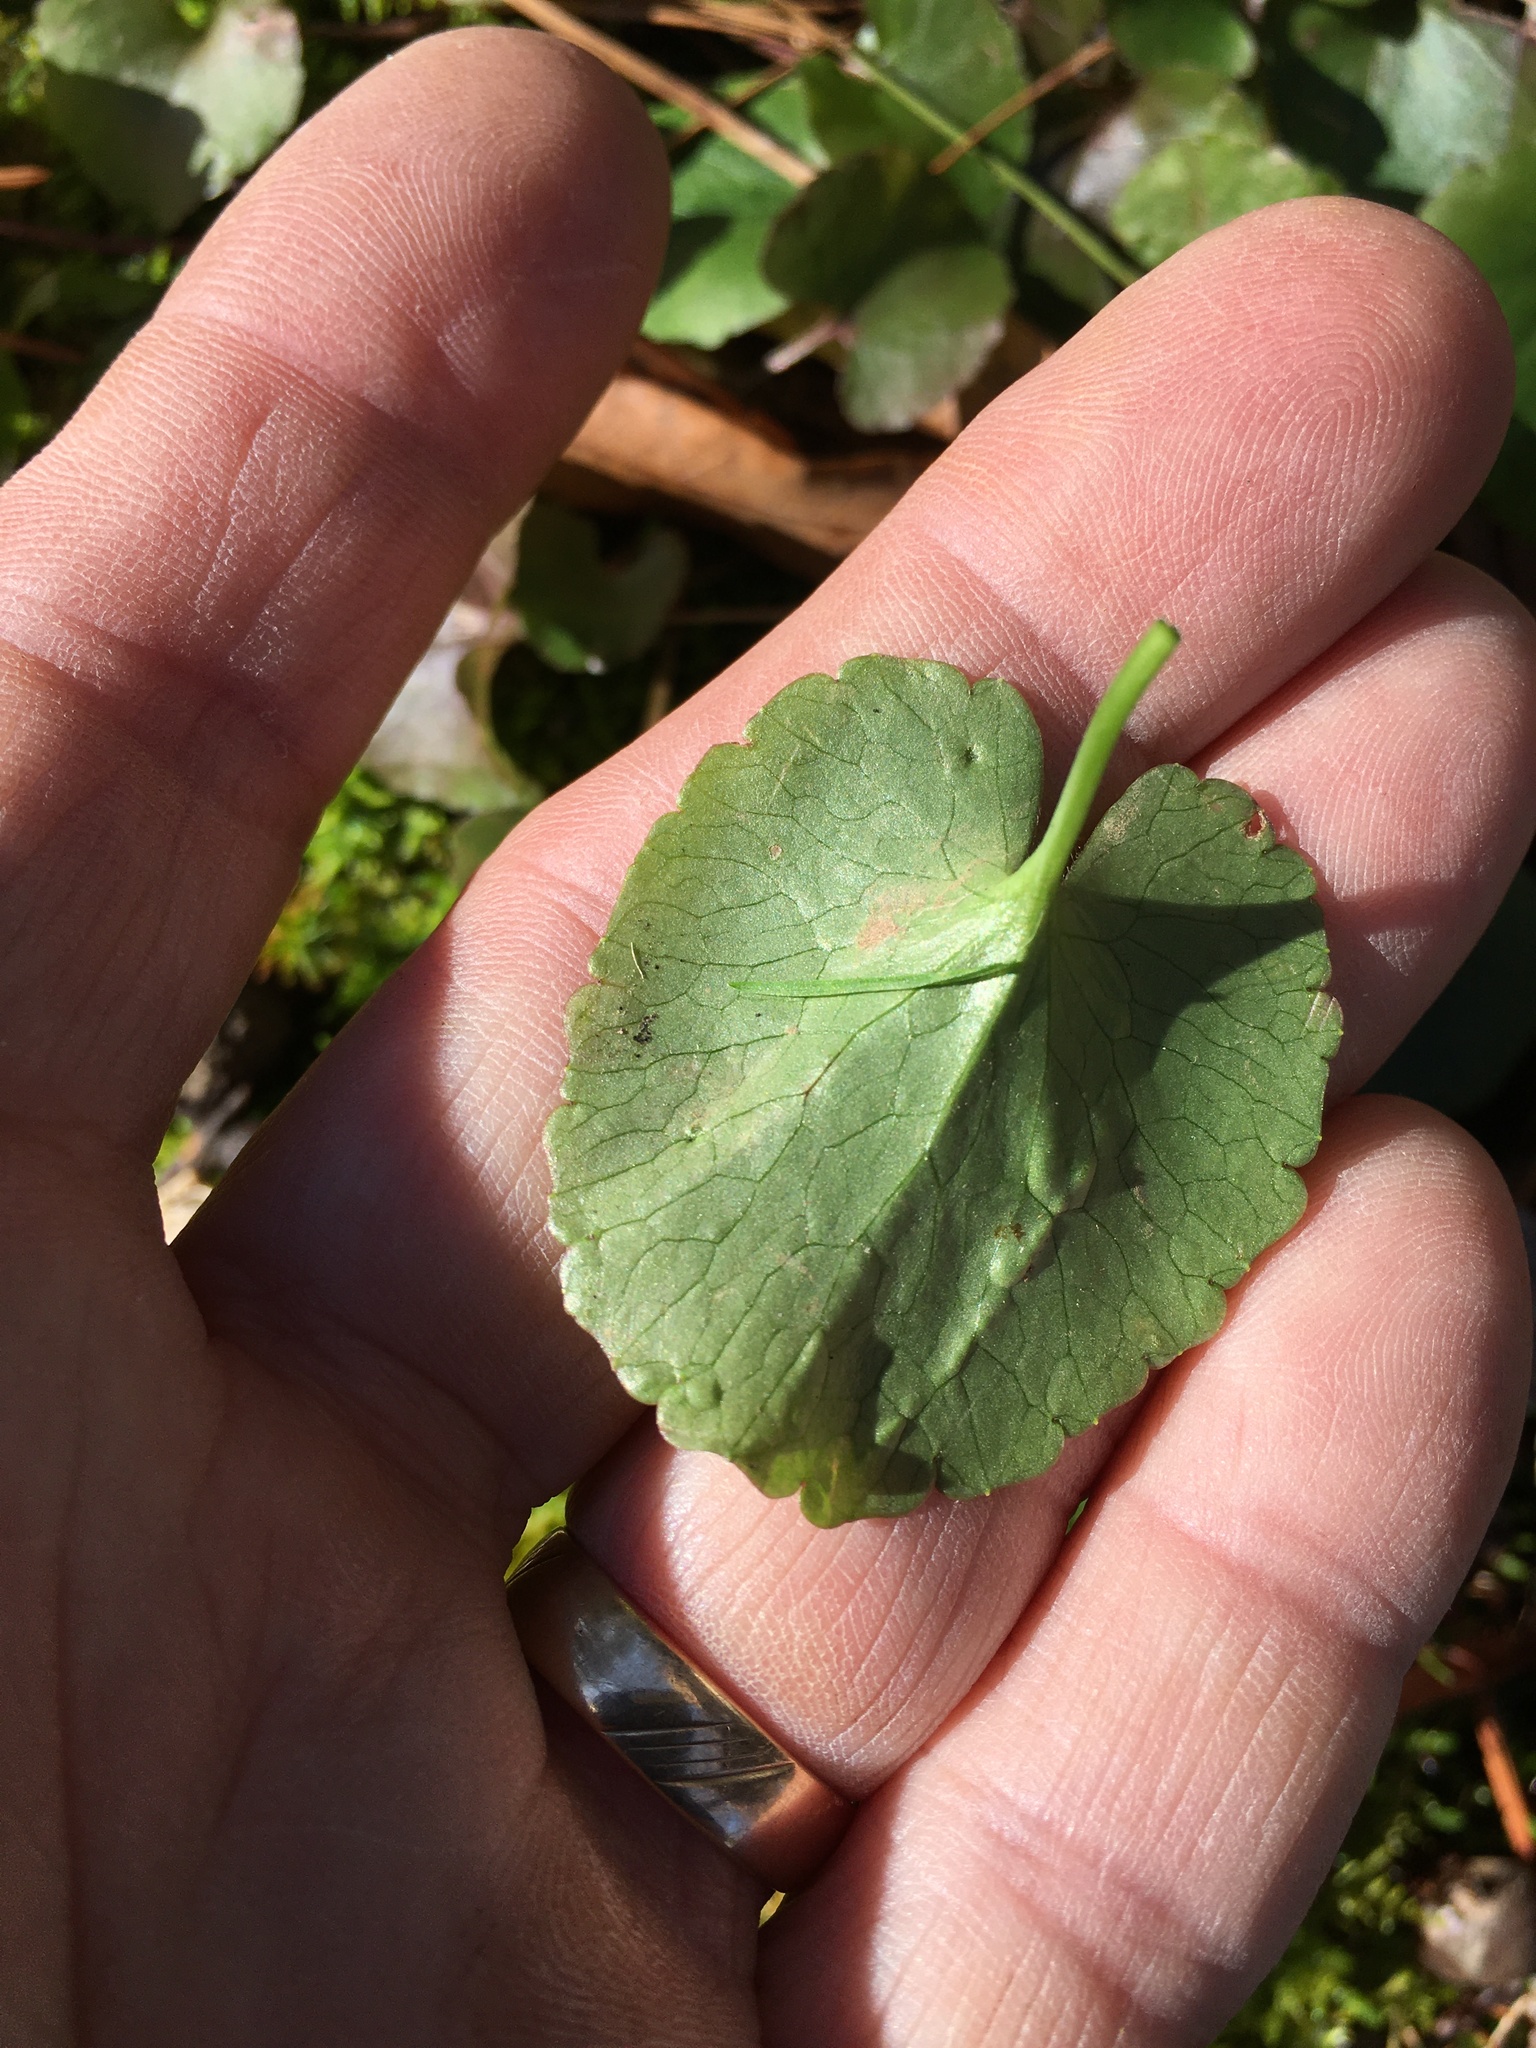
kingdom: Plantae
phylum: Tracheophyta
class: Magnoliopsida
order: Ranunculales
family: Ranunculaceae
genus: Ranunculus
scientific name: Ranunculus abortivus
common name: Early wood buttercup
